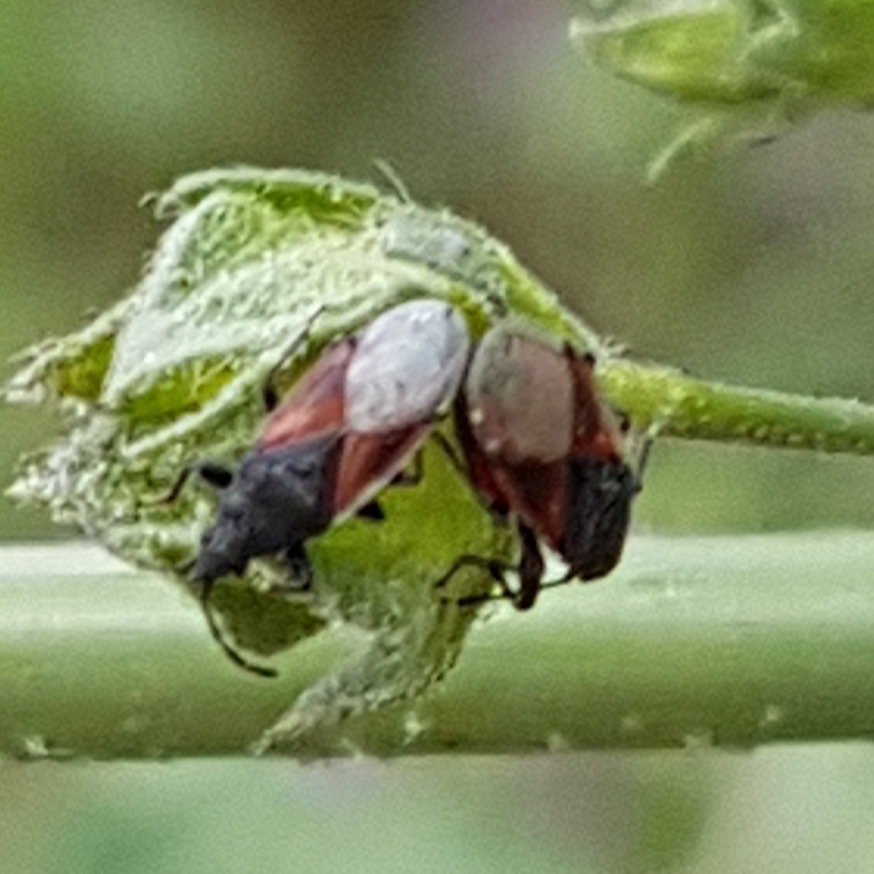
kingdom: Animalia
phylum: Arthropoda
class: Insecta
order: Hemiptera
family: Oxycarenidae
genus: Oxycarenus
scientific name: Oxycarenus lavaterae
